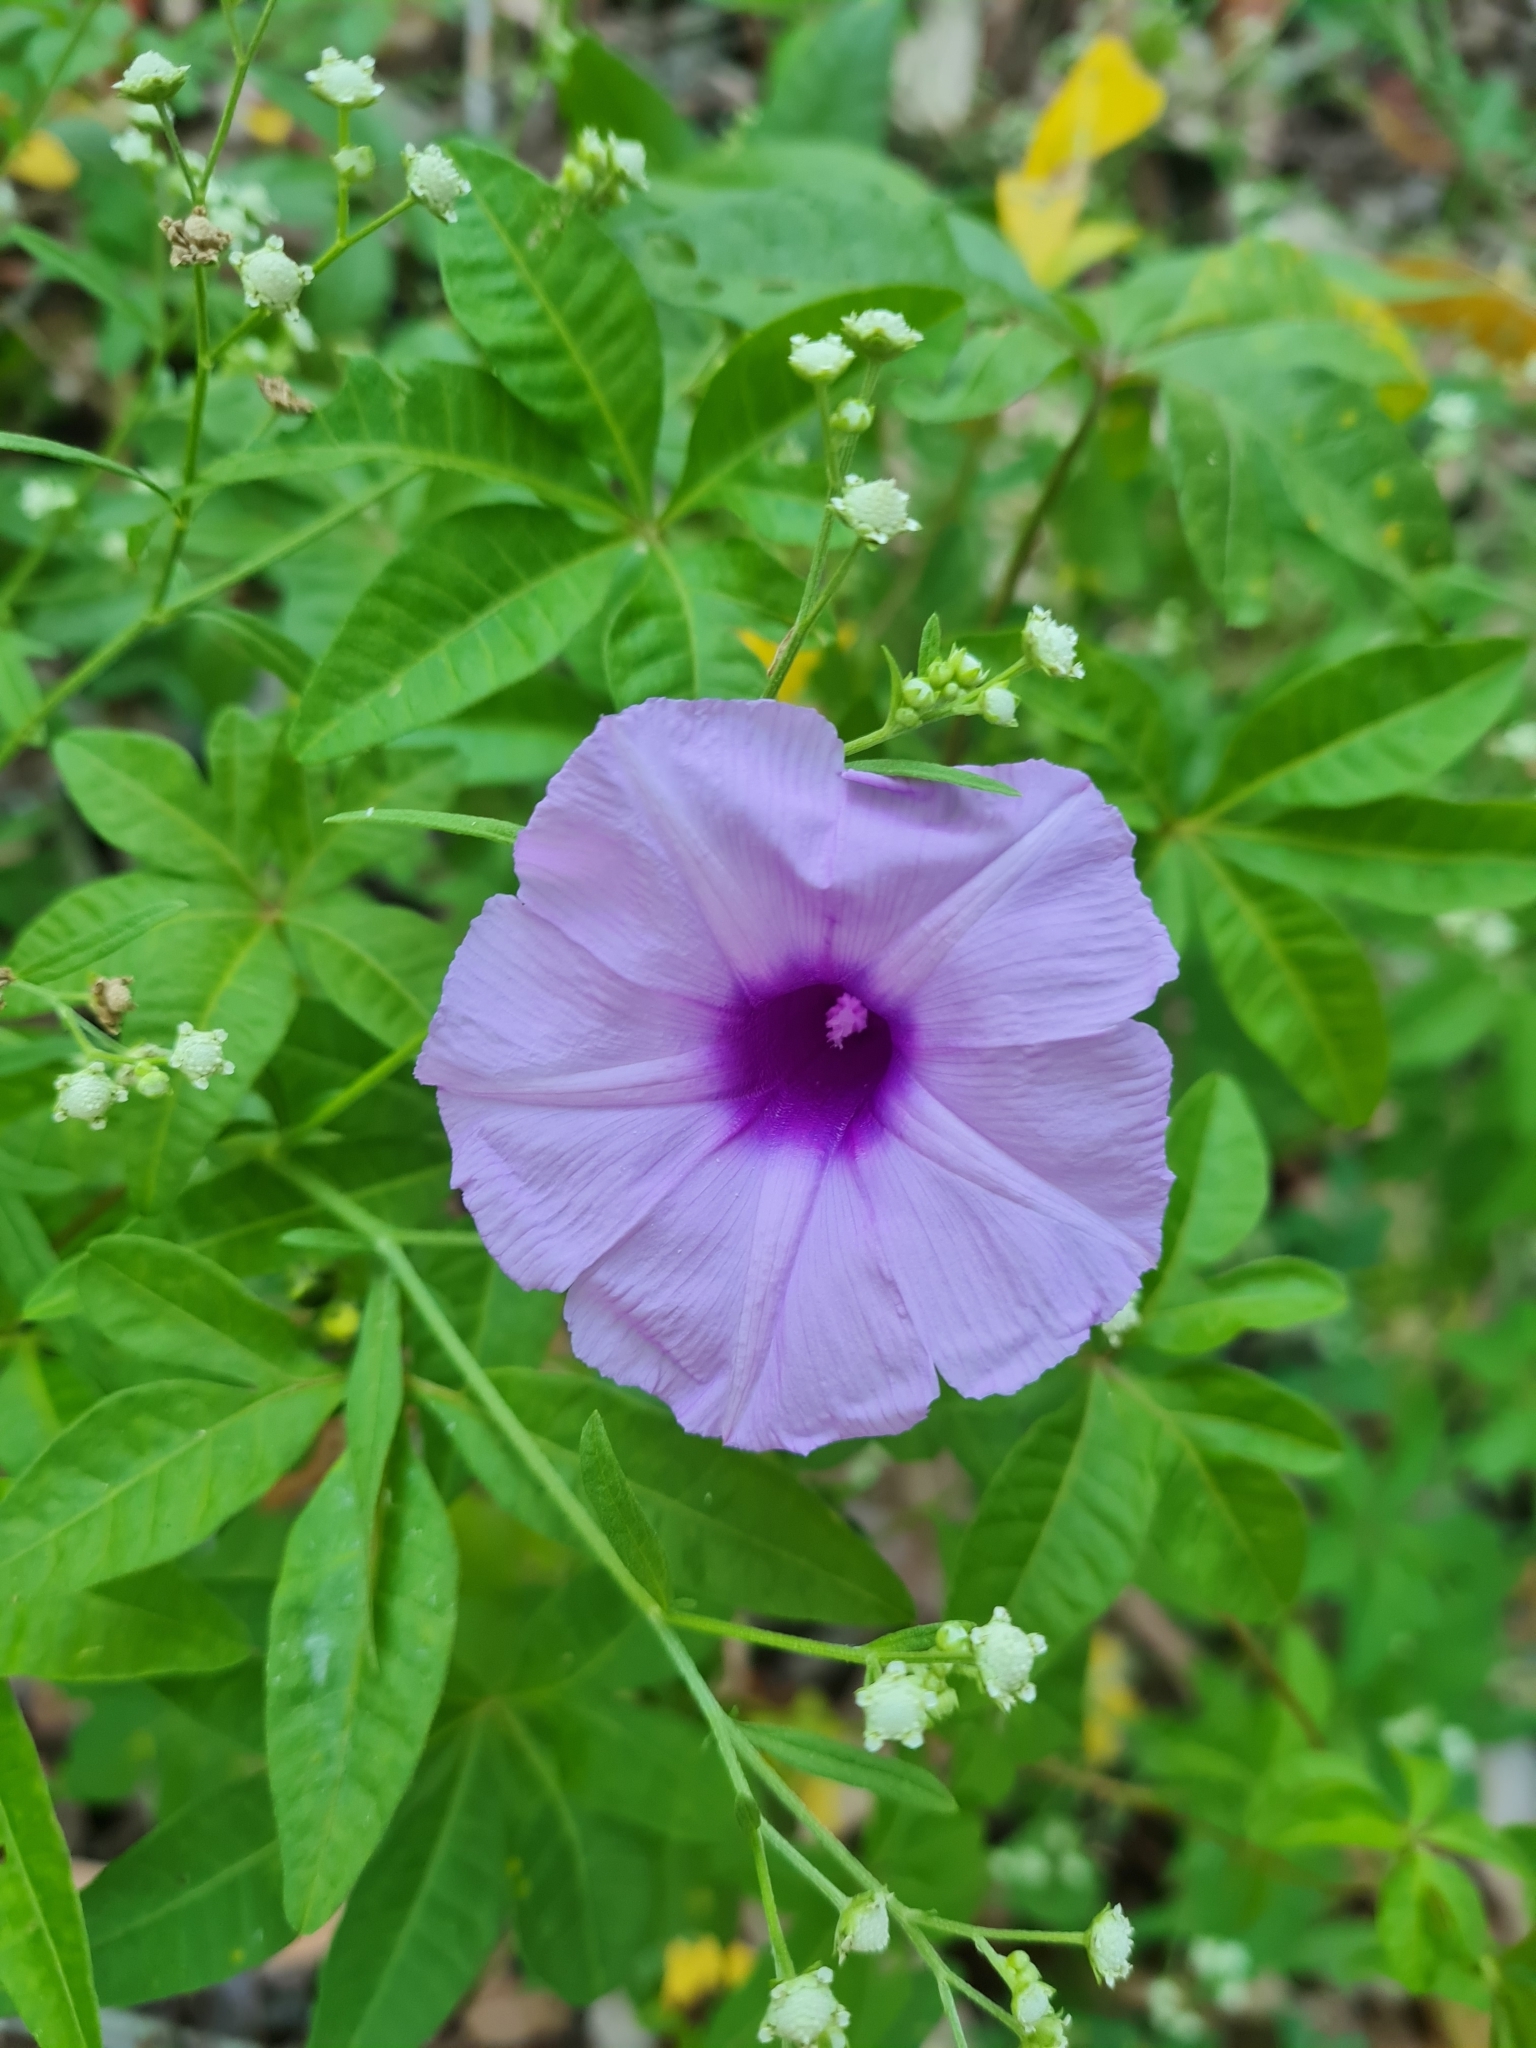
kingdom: Plantae
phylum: Tracheophyta
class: Magnoliopsida
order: Solanales
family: Convolvulaceae
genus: Ipomoea
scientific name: Ipomoea cairica
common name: Mile a minute vine
